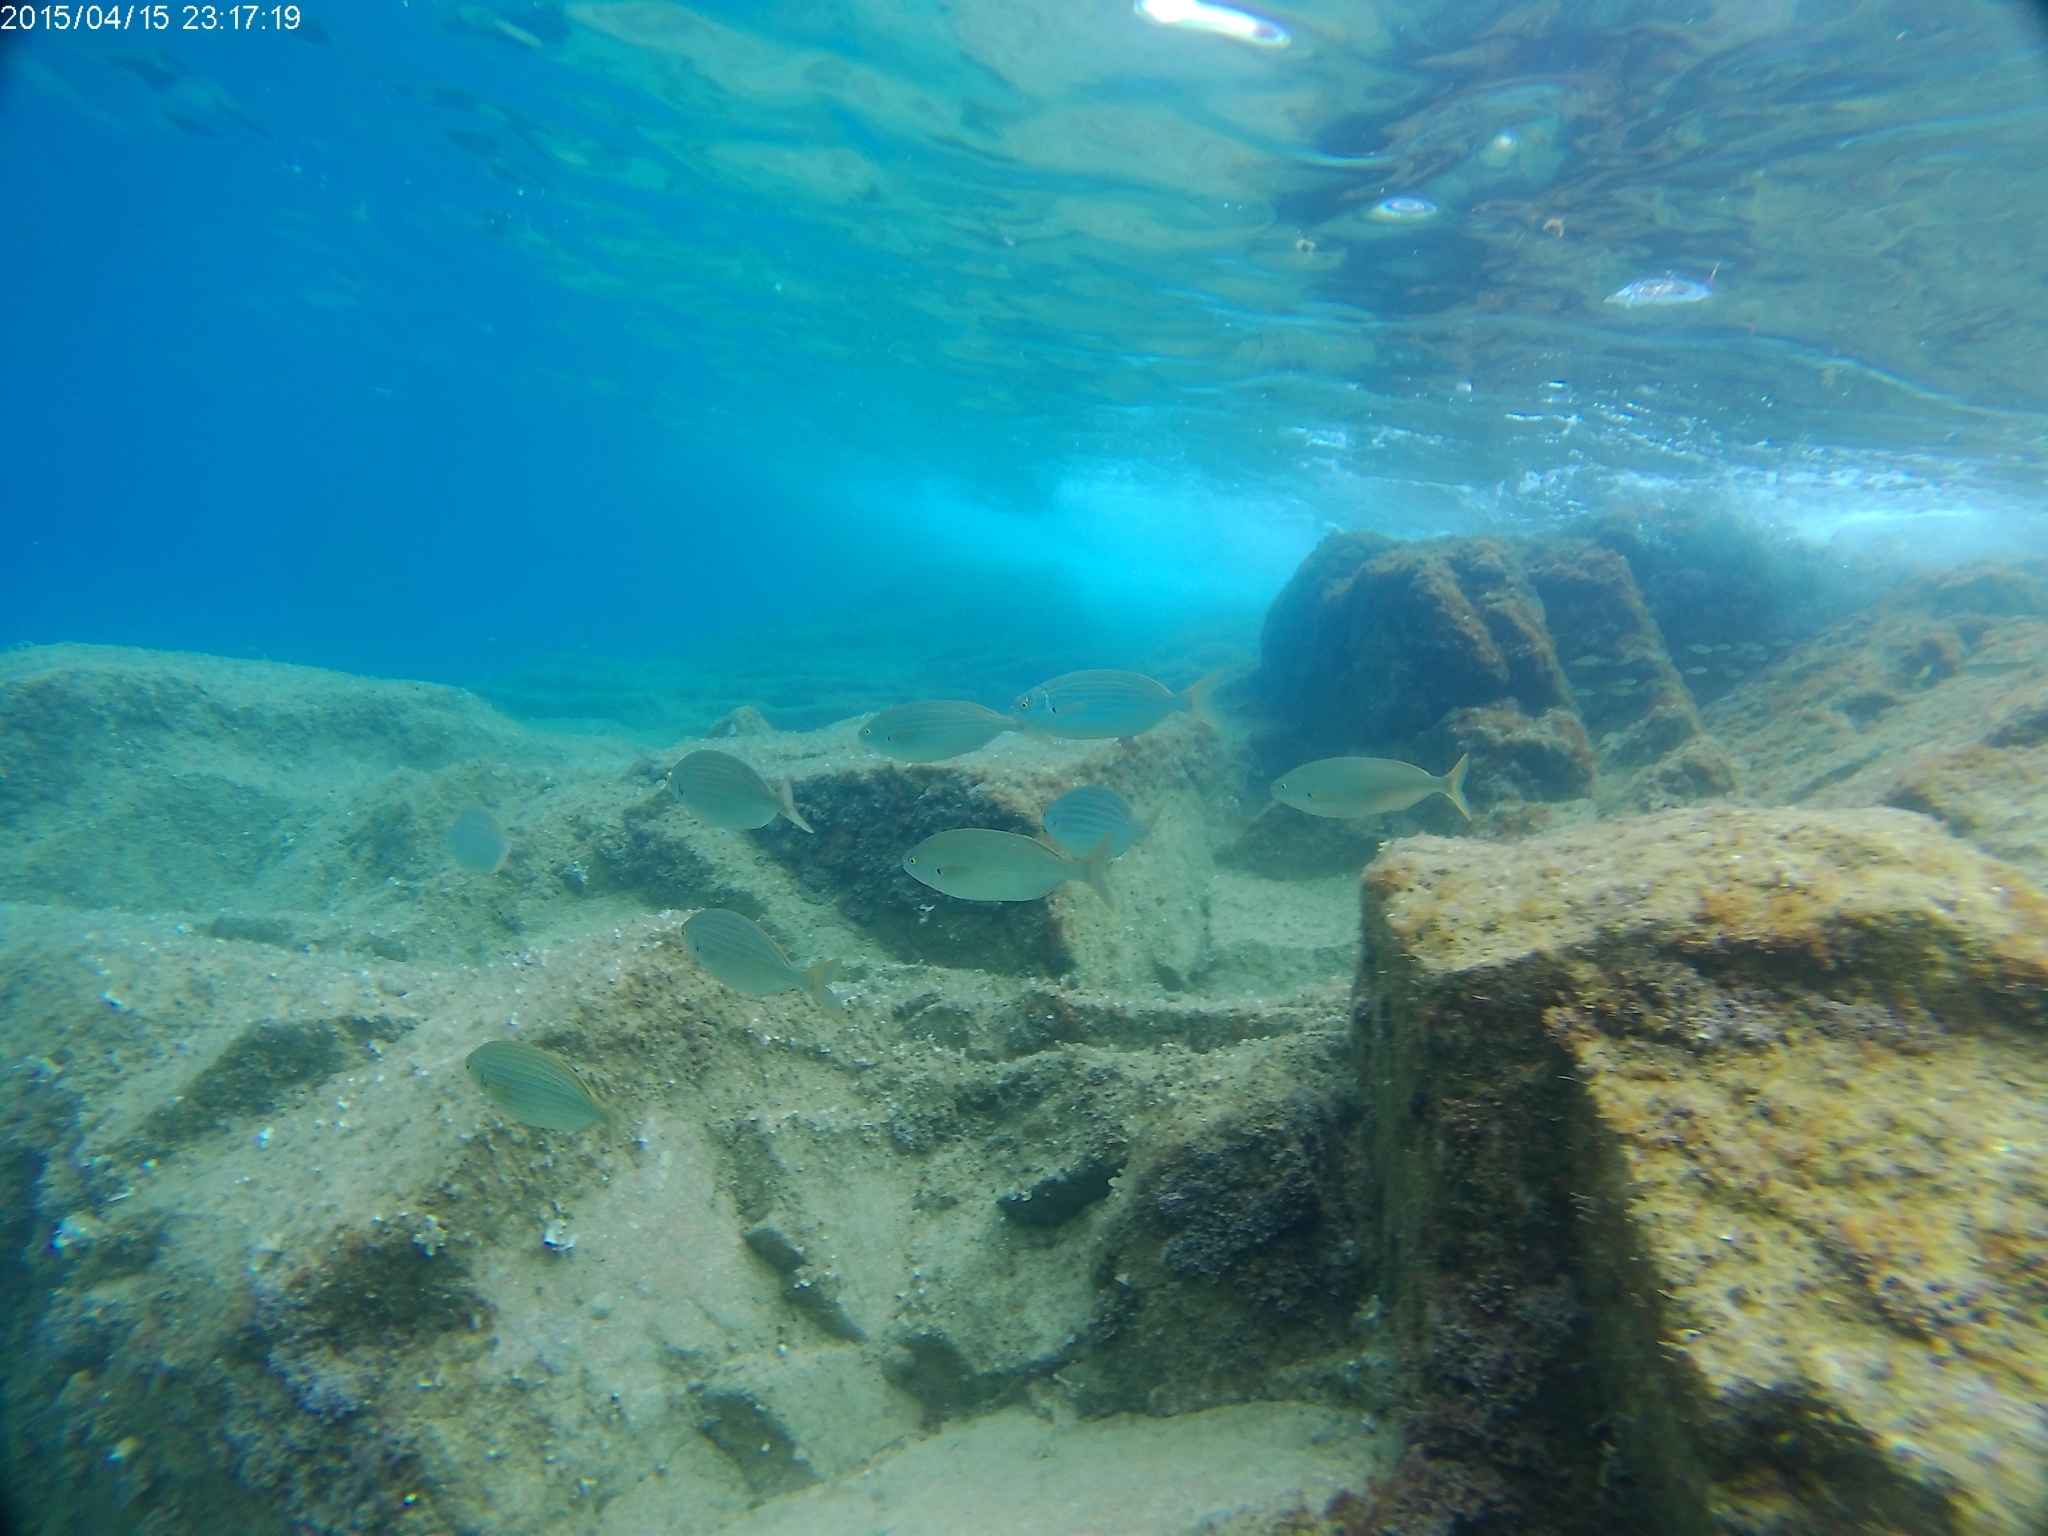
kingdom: Animalia
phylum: Chordata
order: Perciformes
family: Sparidae
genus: Sarpa
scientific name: Sarpa salpa
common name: Salema
